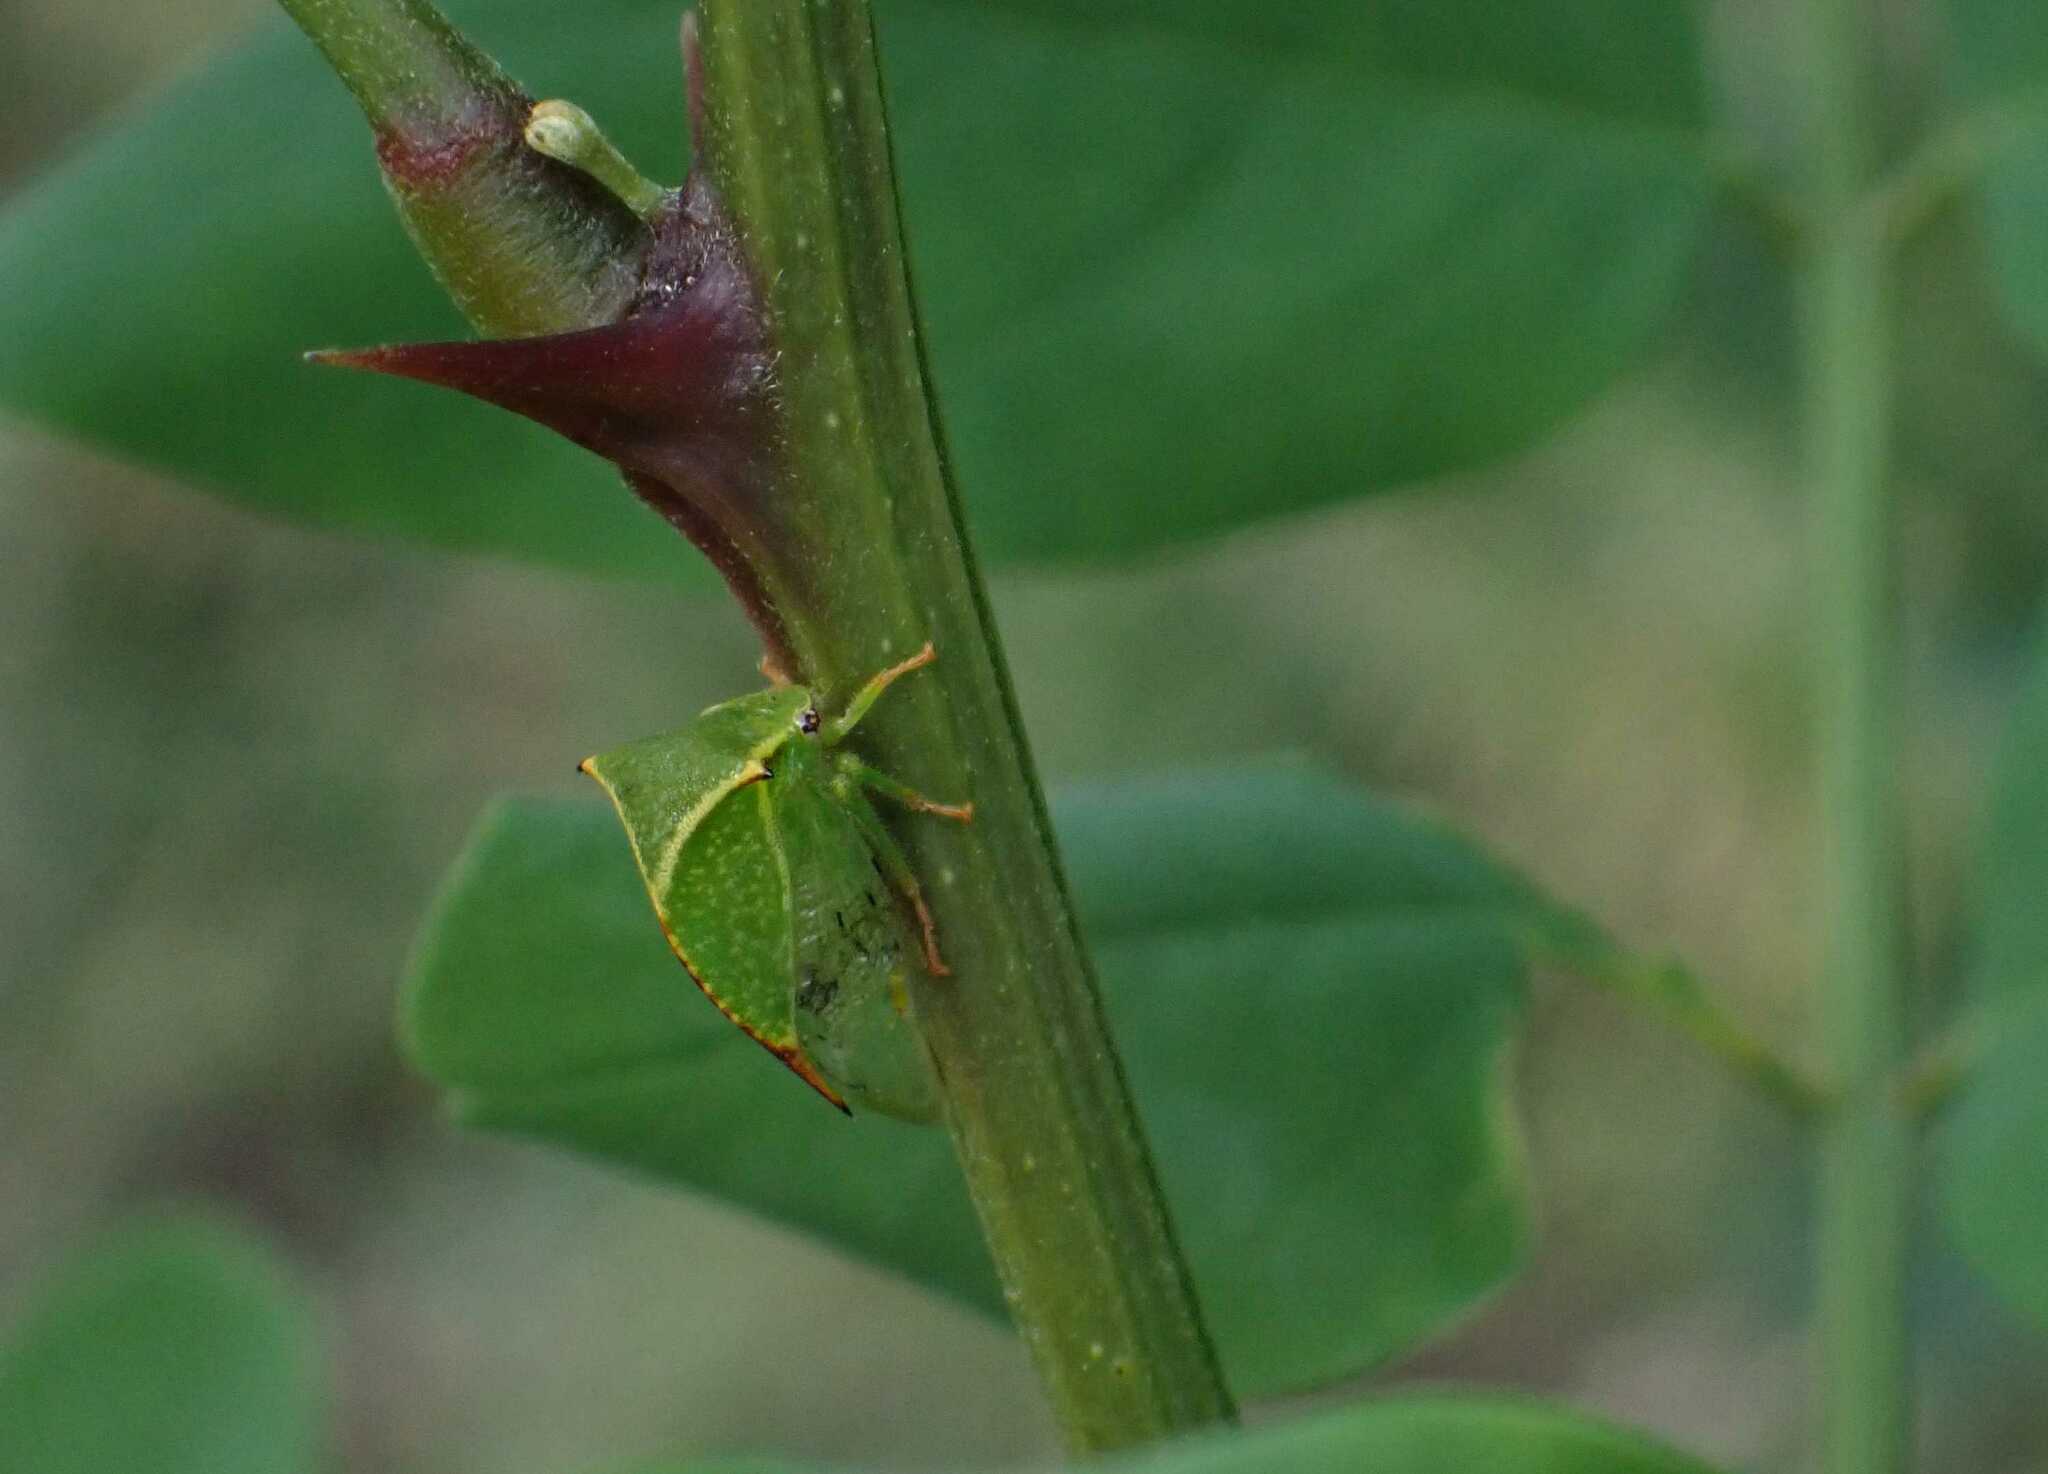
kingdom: Animalia
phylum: Arthropoda
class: Insecta
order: Hemiptera
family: Membracidae
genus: Stictocephala
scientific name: Stictocephala bisonia
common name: American buffalo treehopper
